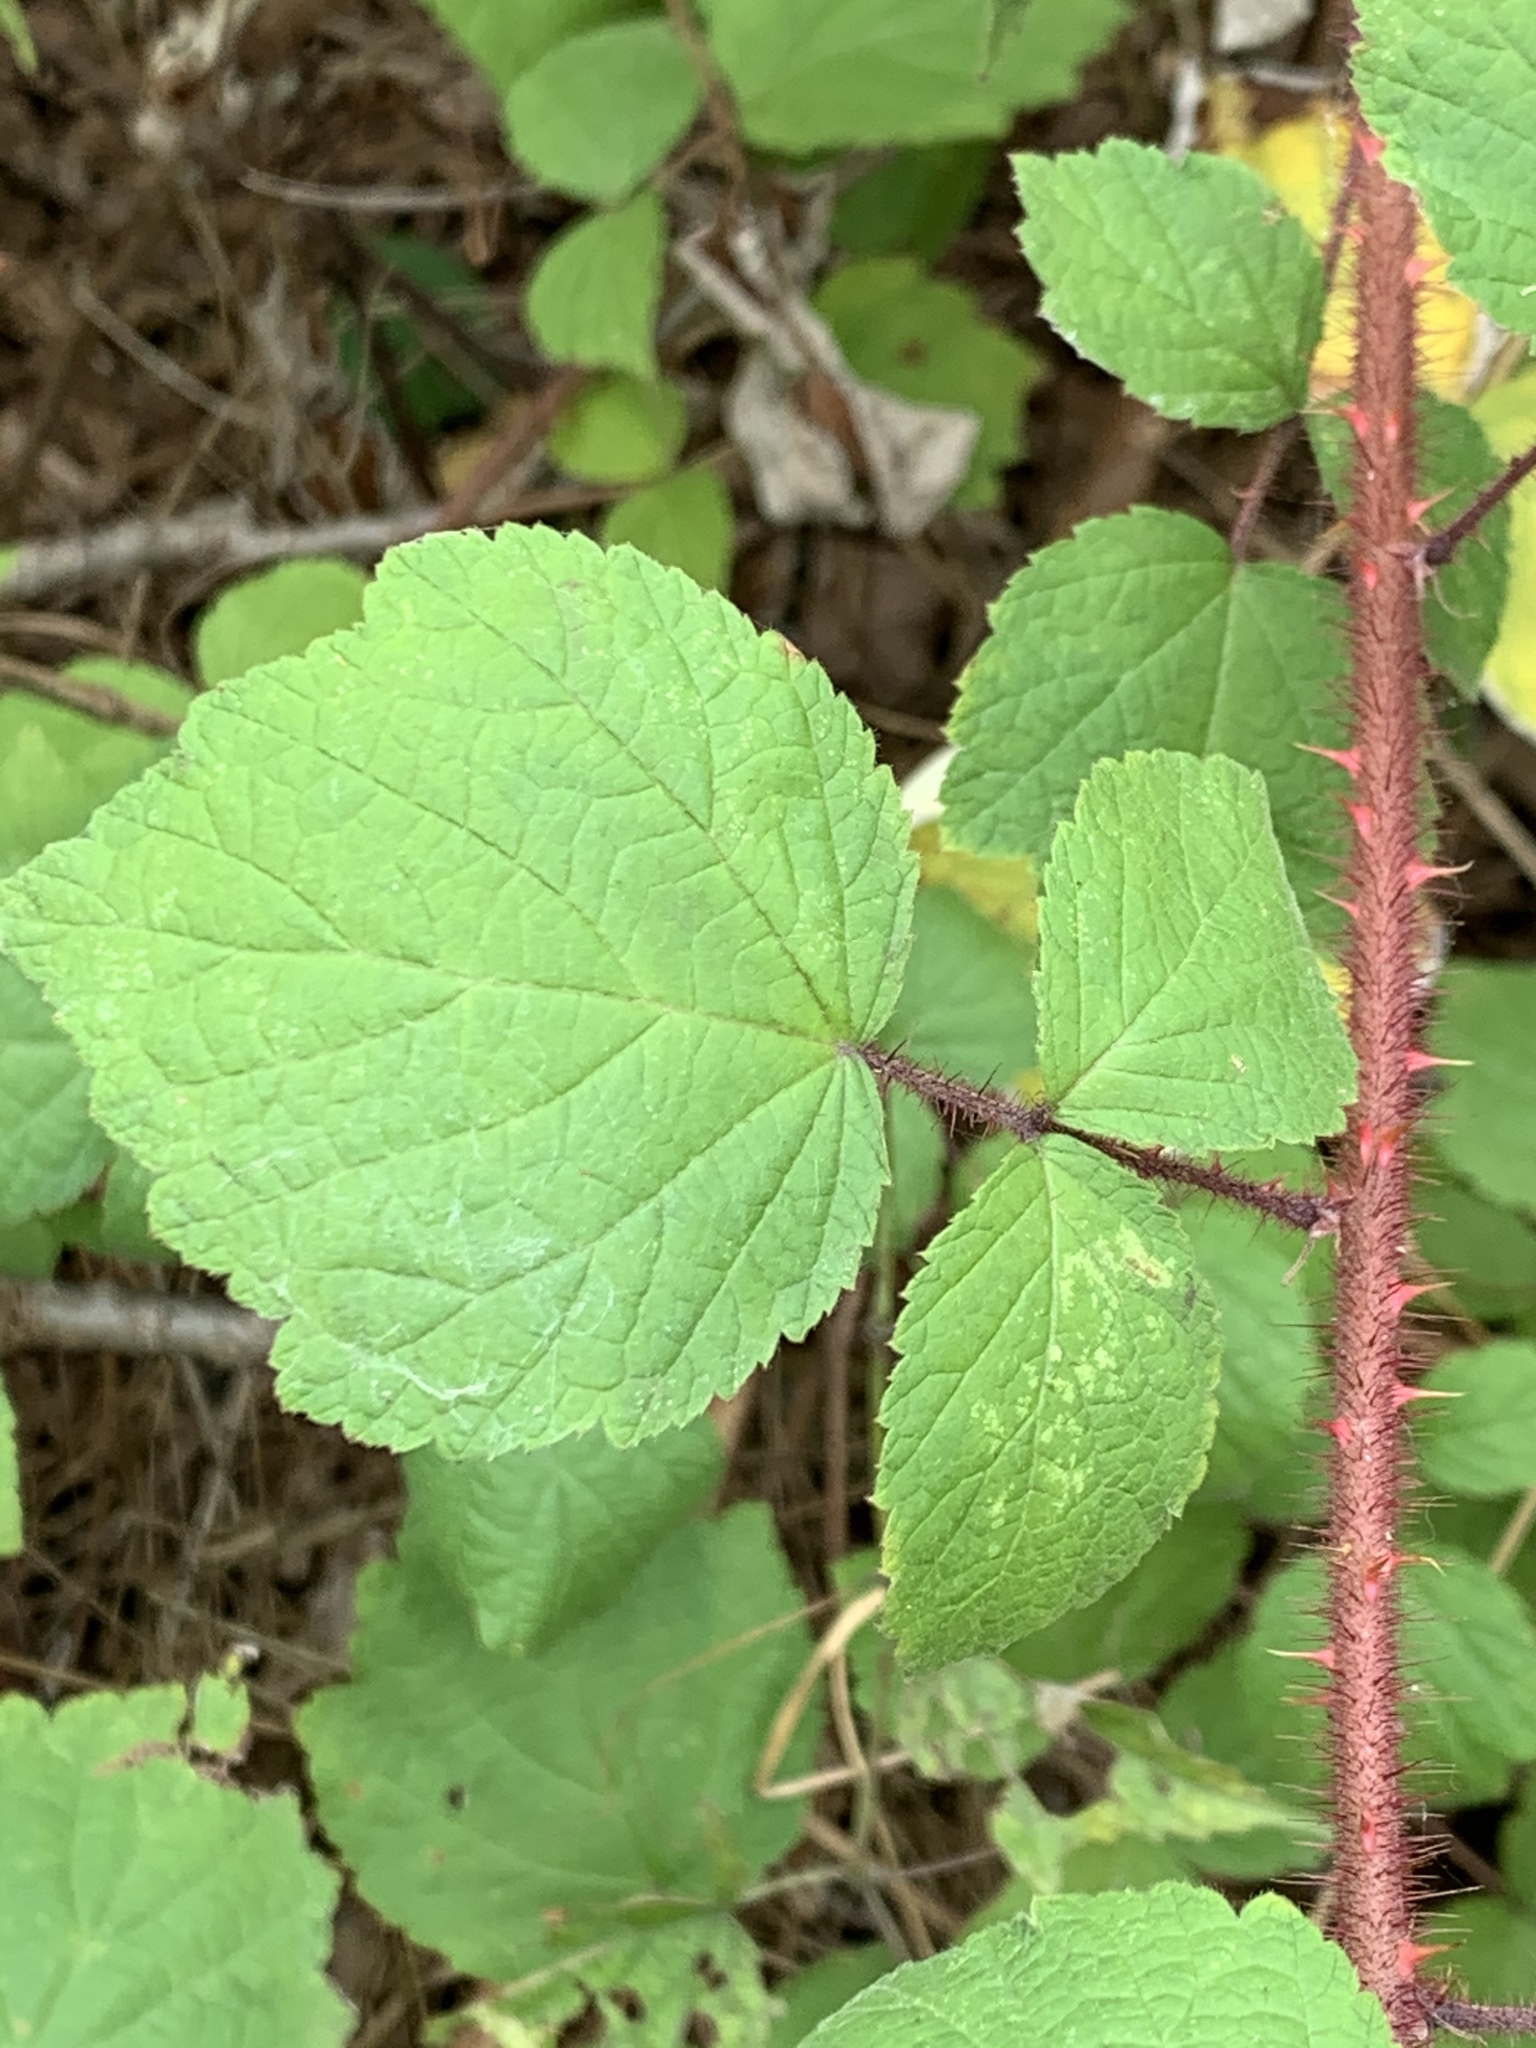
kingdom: Plantae
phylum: Tracheophyta
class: Magnoliopsida
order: Rosales
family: Rosaceae
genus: Rubus
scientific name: Rubus phoenicolasius
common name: Japanese wineberry
